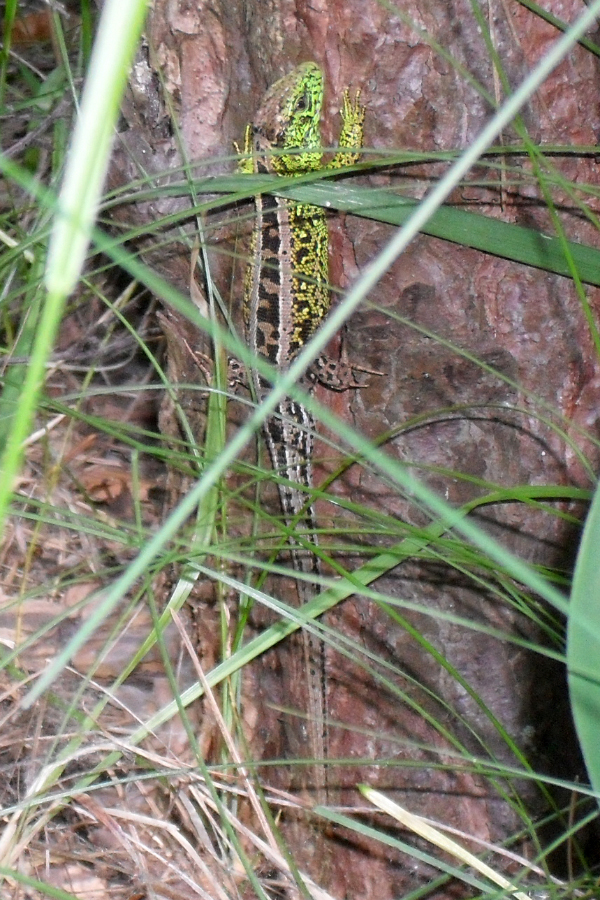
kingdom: Animalia
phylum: Chordata
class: Squamata
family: Lacertidae
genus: Lacerta
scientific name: Lacerta agilis
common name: Sand lizard
